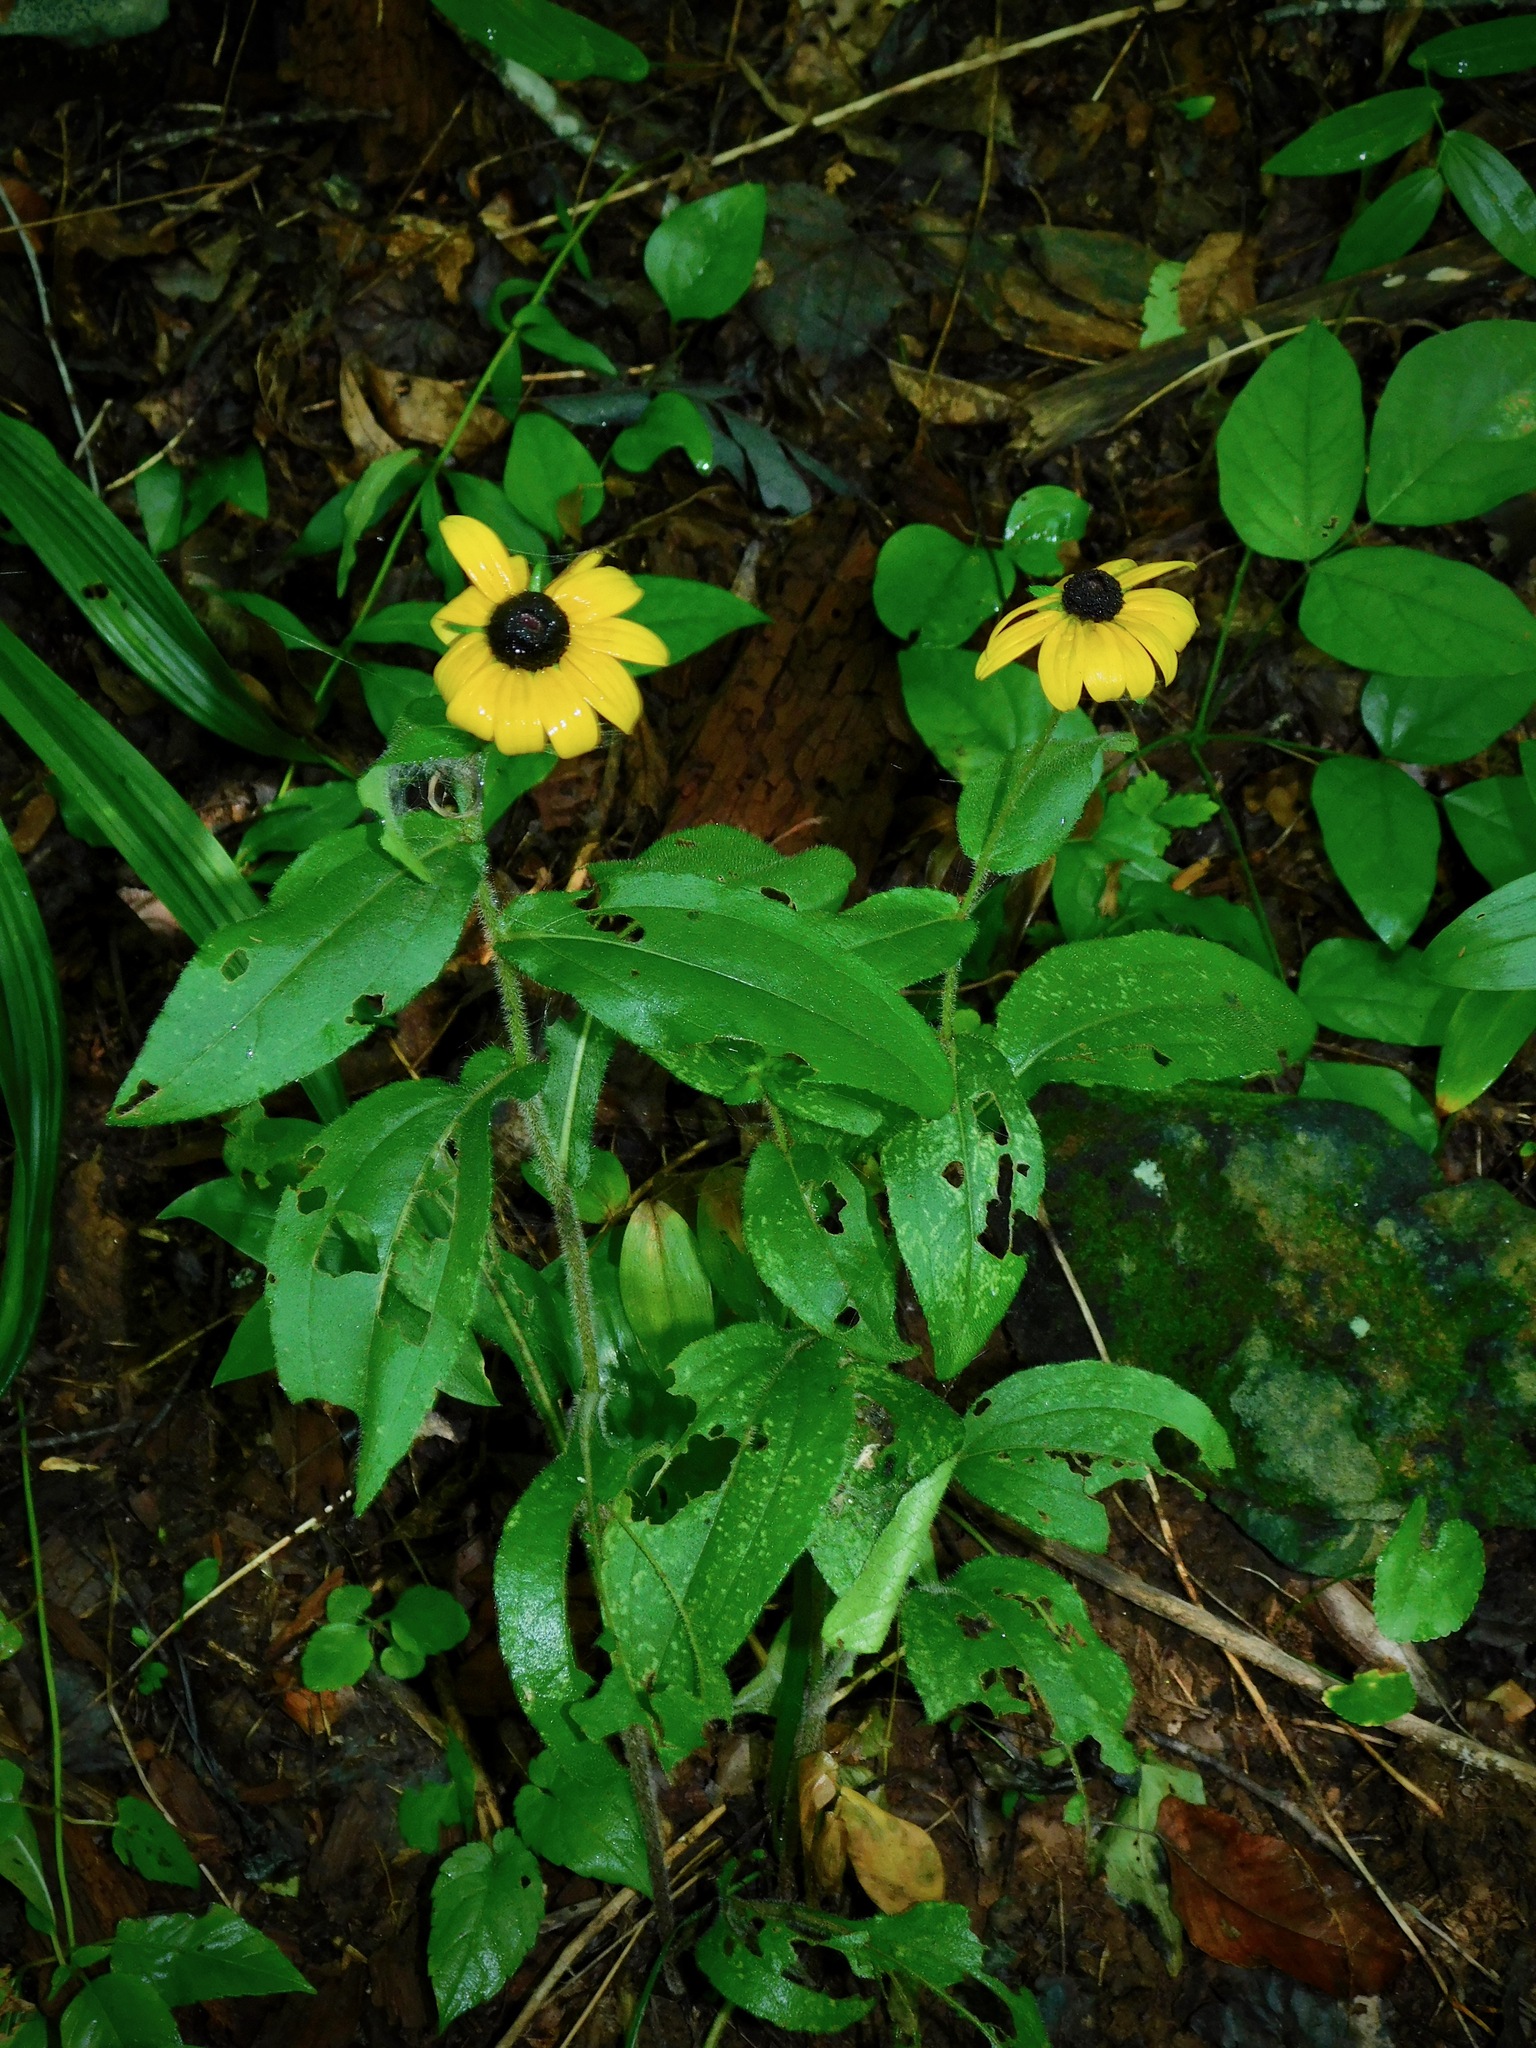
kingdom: Plantae
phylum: Tracheophyta
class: Magnoliopsida
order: Asterales
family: Asteraceae
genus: Rudbeckia
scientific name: Rudbeckia hirta
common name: Black-eyed-susan
